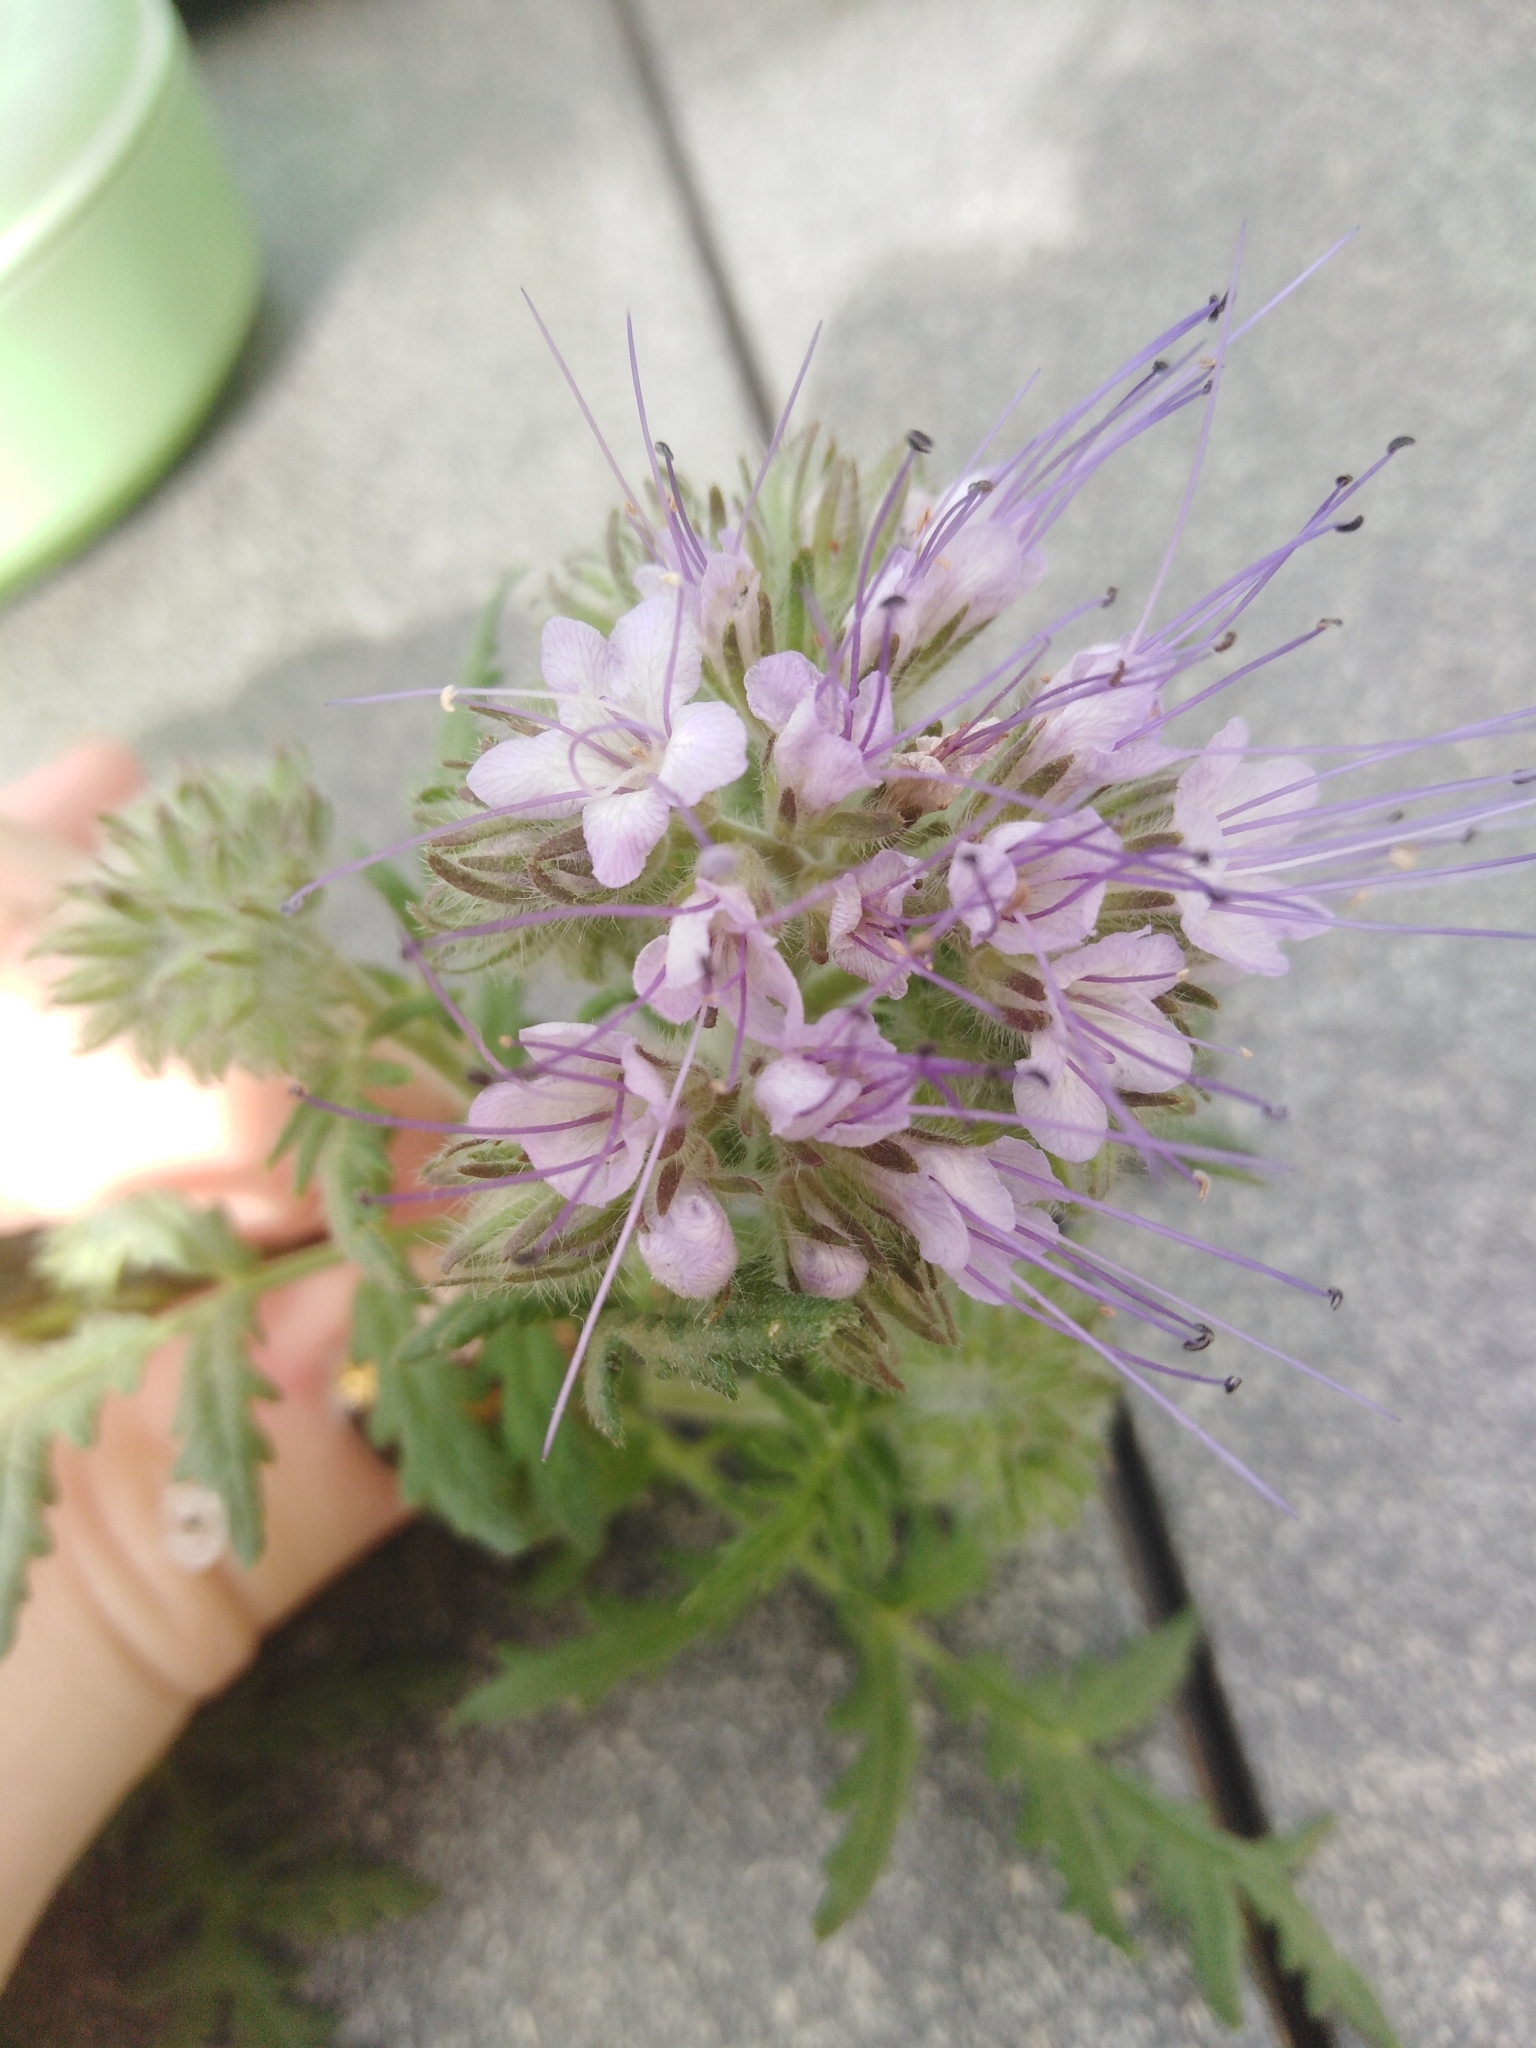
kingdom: Plantae
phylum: Tracheophyta
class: Magnoliopsida
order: Boraginales
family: Hydrophyllaceae
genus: Phacelia
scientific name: Phacelia tanacetifolia
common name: Phacelia
